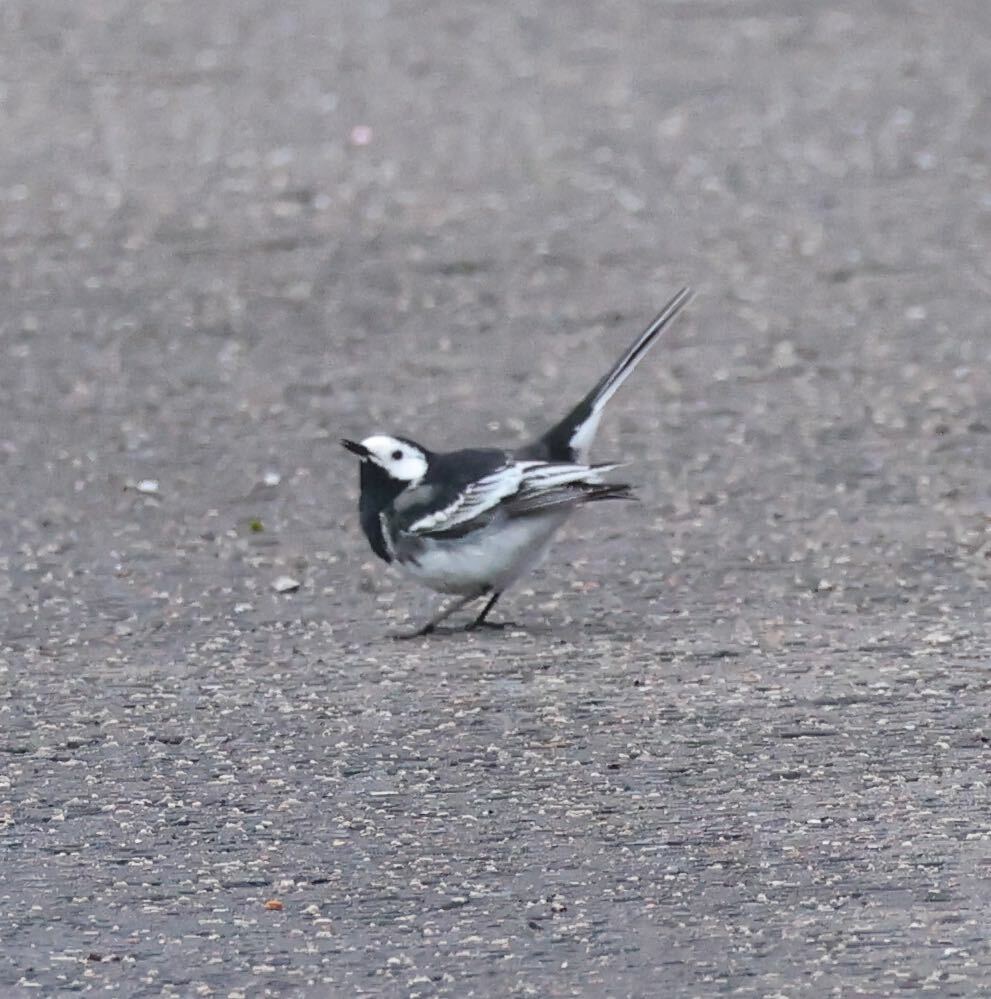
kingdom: Animalia
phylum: Chordata
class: Aves
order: Passeriformes
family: Motacillidae
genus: Motacilla
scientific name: Motacilla alba
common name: White wagtail
